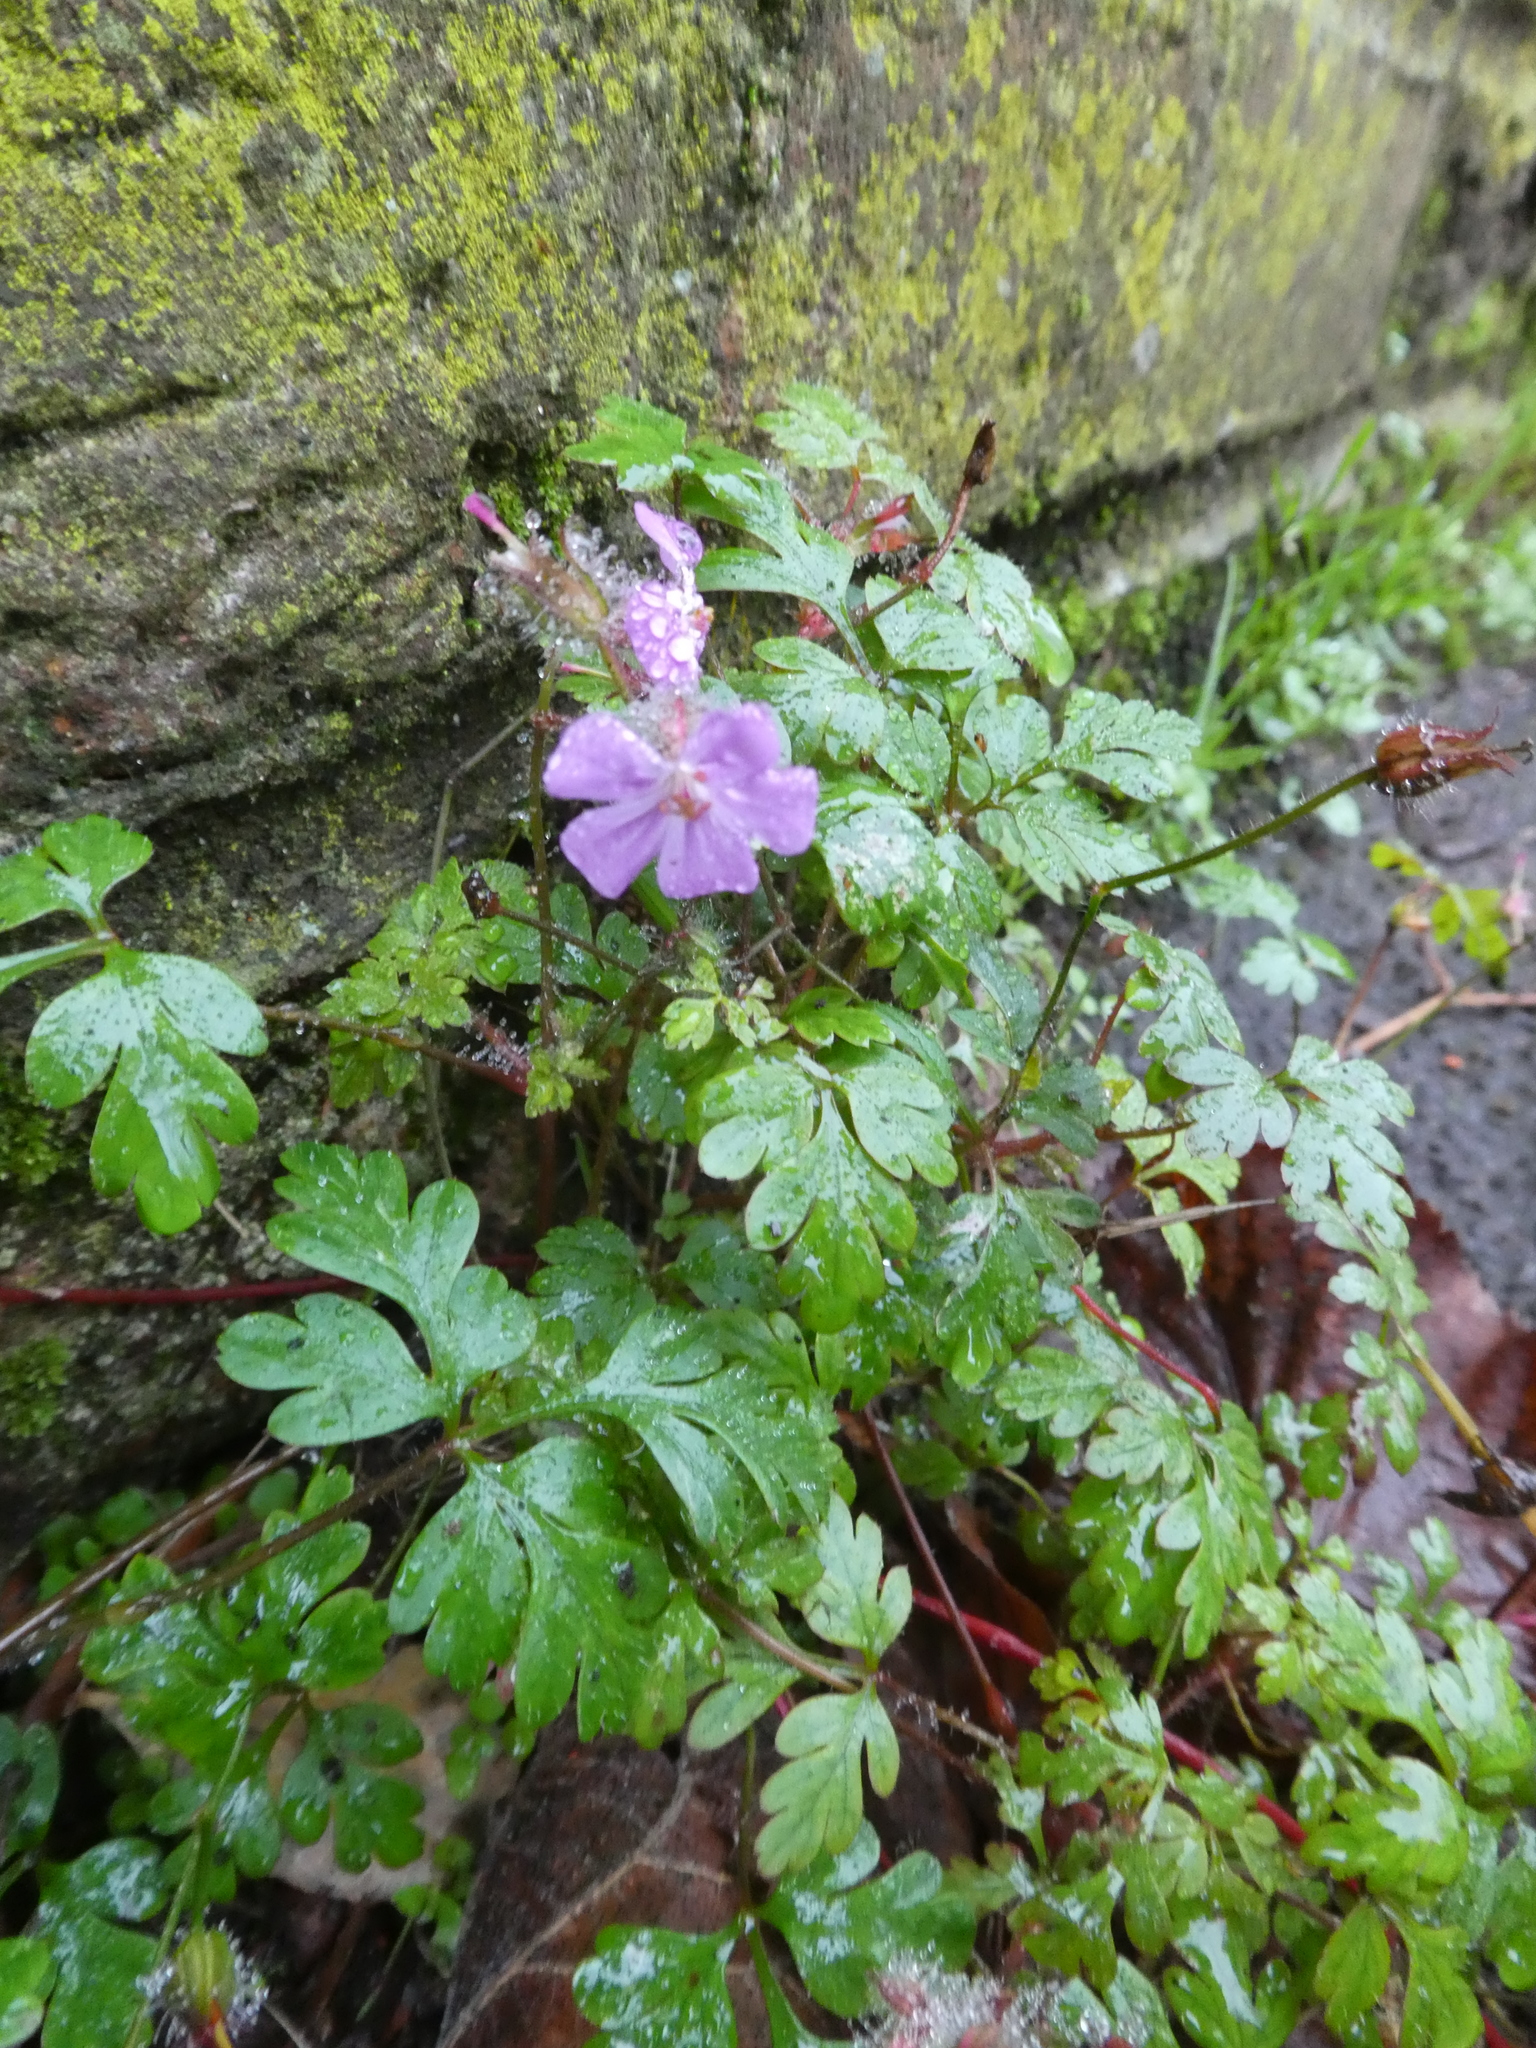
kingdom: Plantae
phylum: Tracheophyta
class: Magnoliopsida
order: Geraniales
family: Geraniaceae
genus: Geranium
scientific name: Geranium robertianum
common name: Herb-robert
